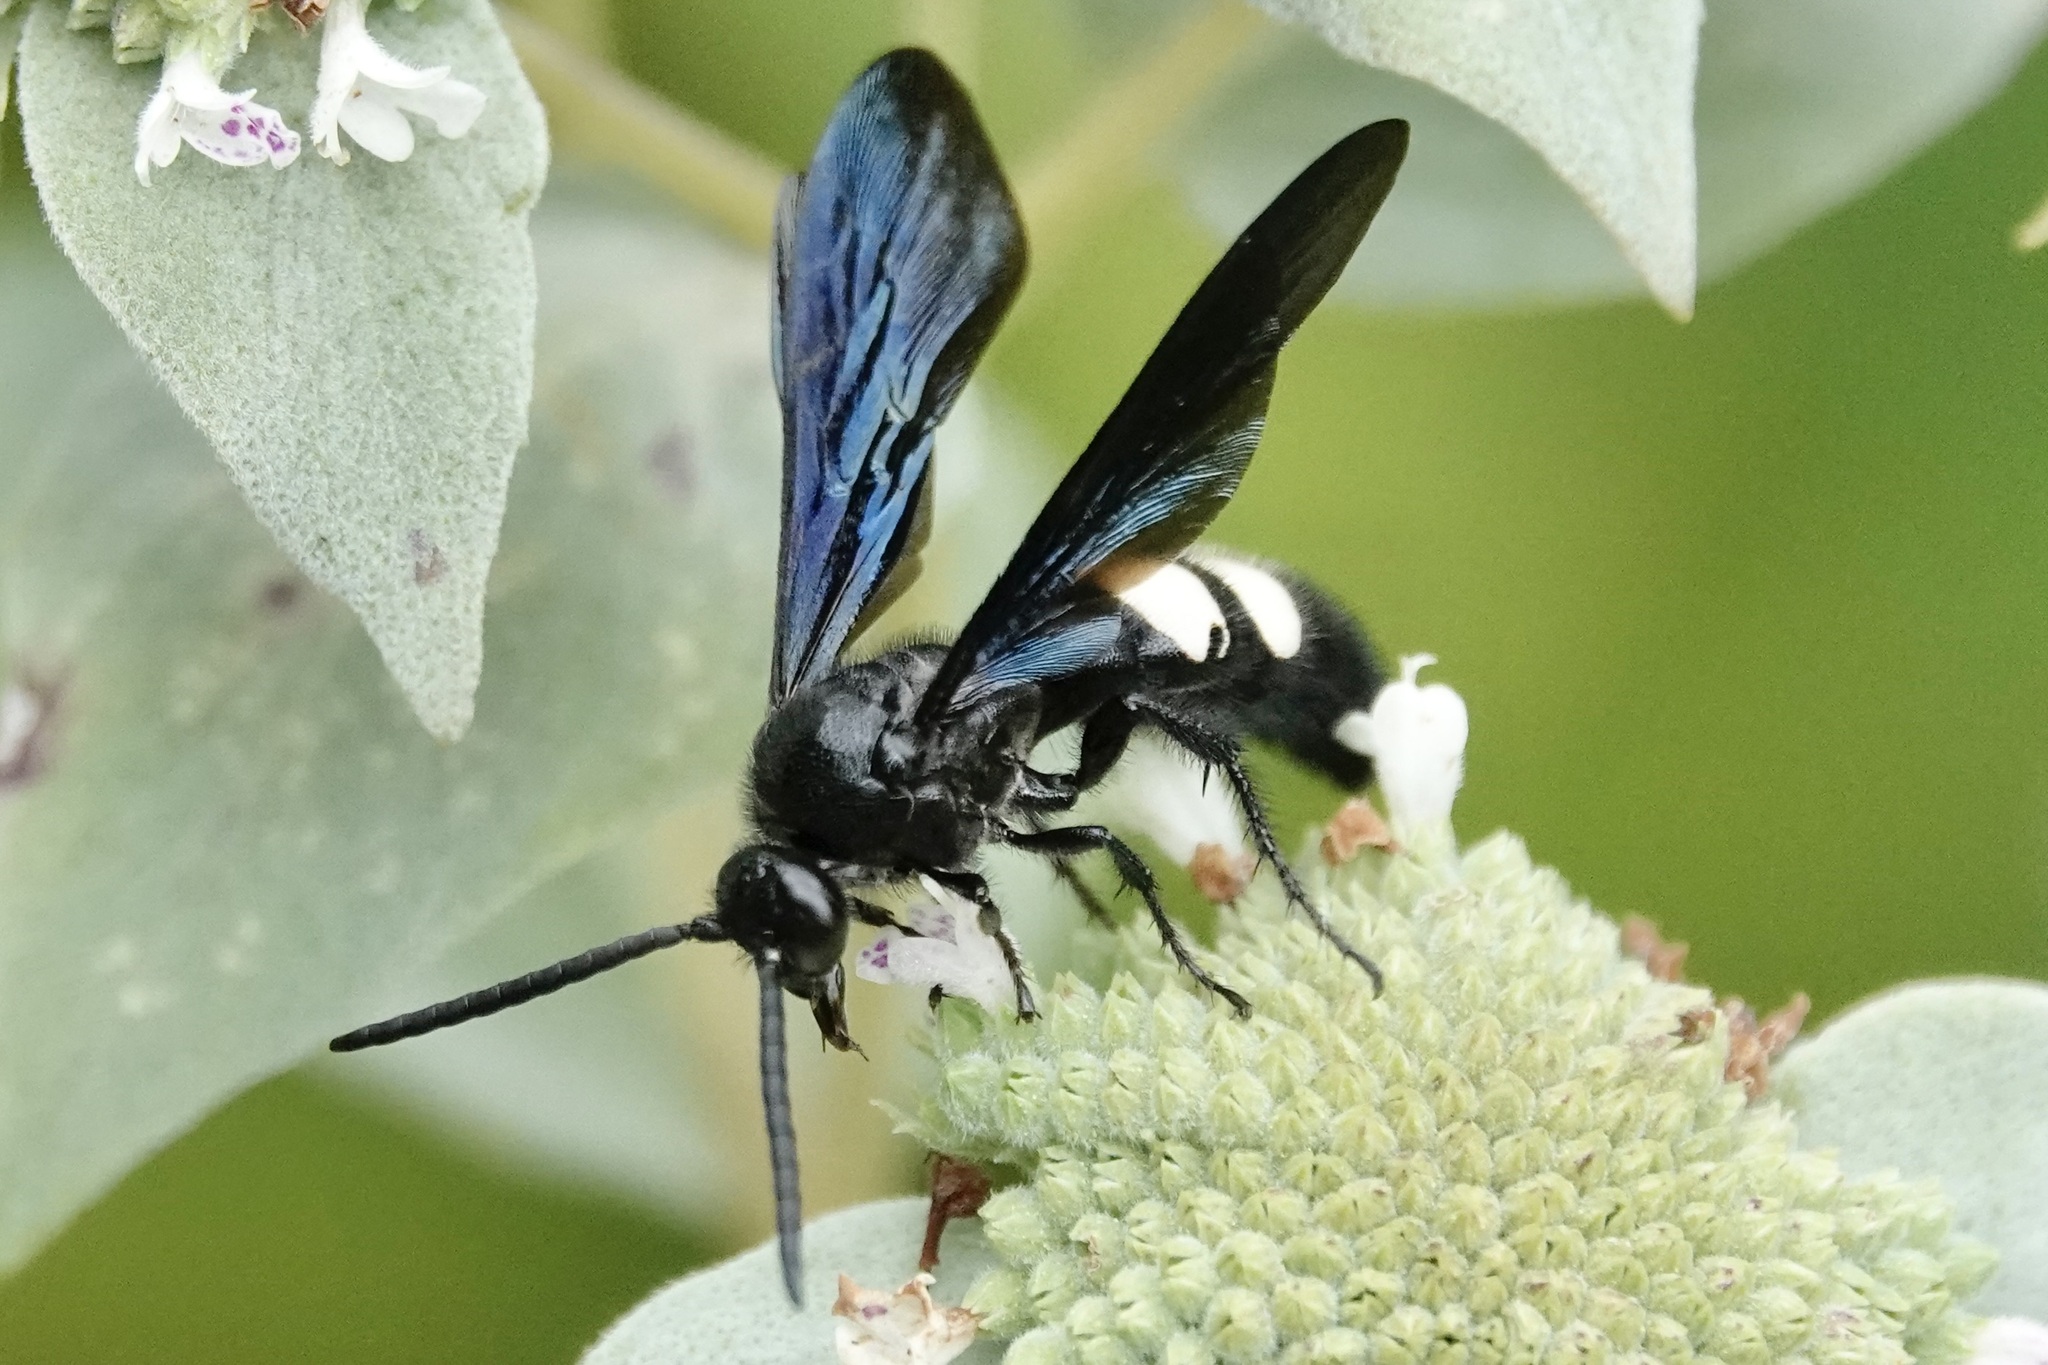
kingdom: Animalia
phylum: Arthropoda
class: Insecta
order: Hymenoptera
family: Scoliidae
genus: Scolia
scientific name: Scolia bicincta
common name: Double-banded scoliid wasp
